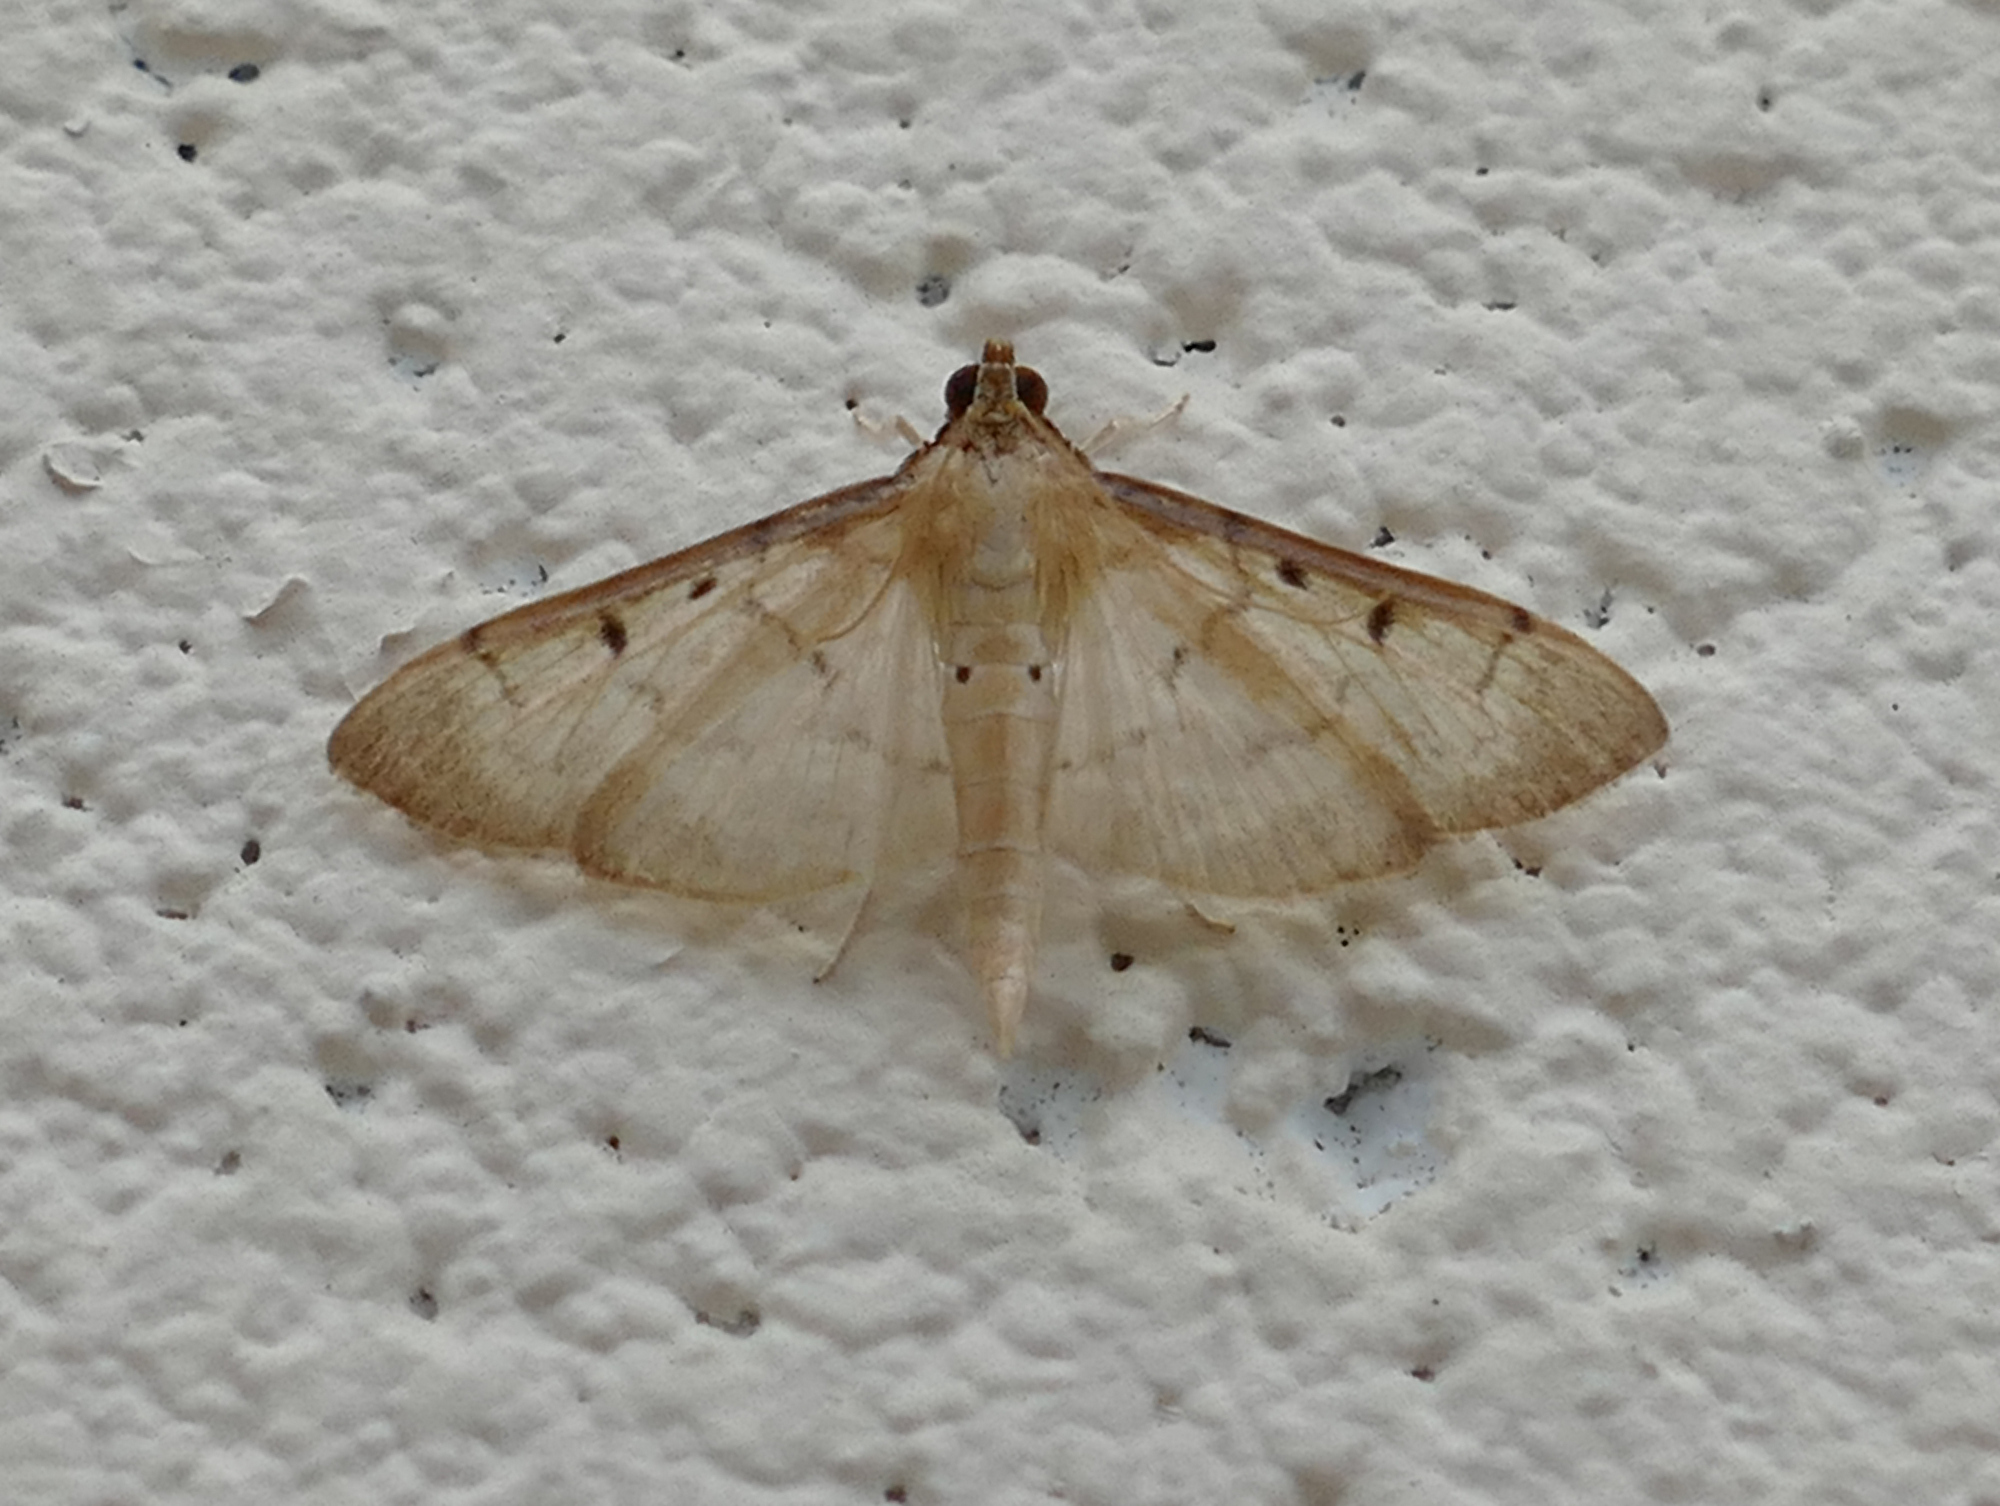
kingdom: Animalia
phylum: Arthropoda
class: Insecta
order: Lepidoptera
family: Crambidae
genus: Herpetogramma
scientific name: Herpetogramma bipunctalis
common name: Southern beet webworm
